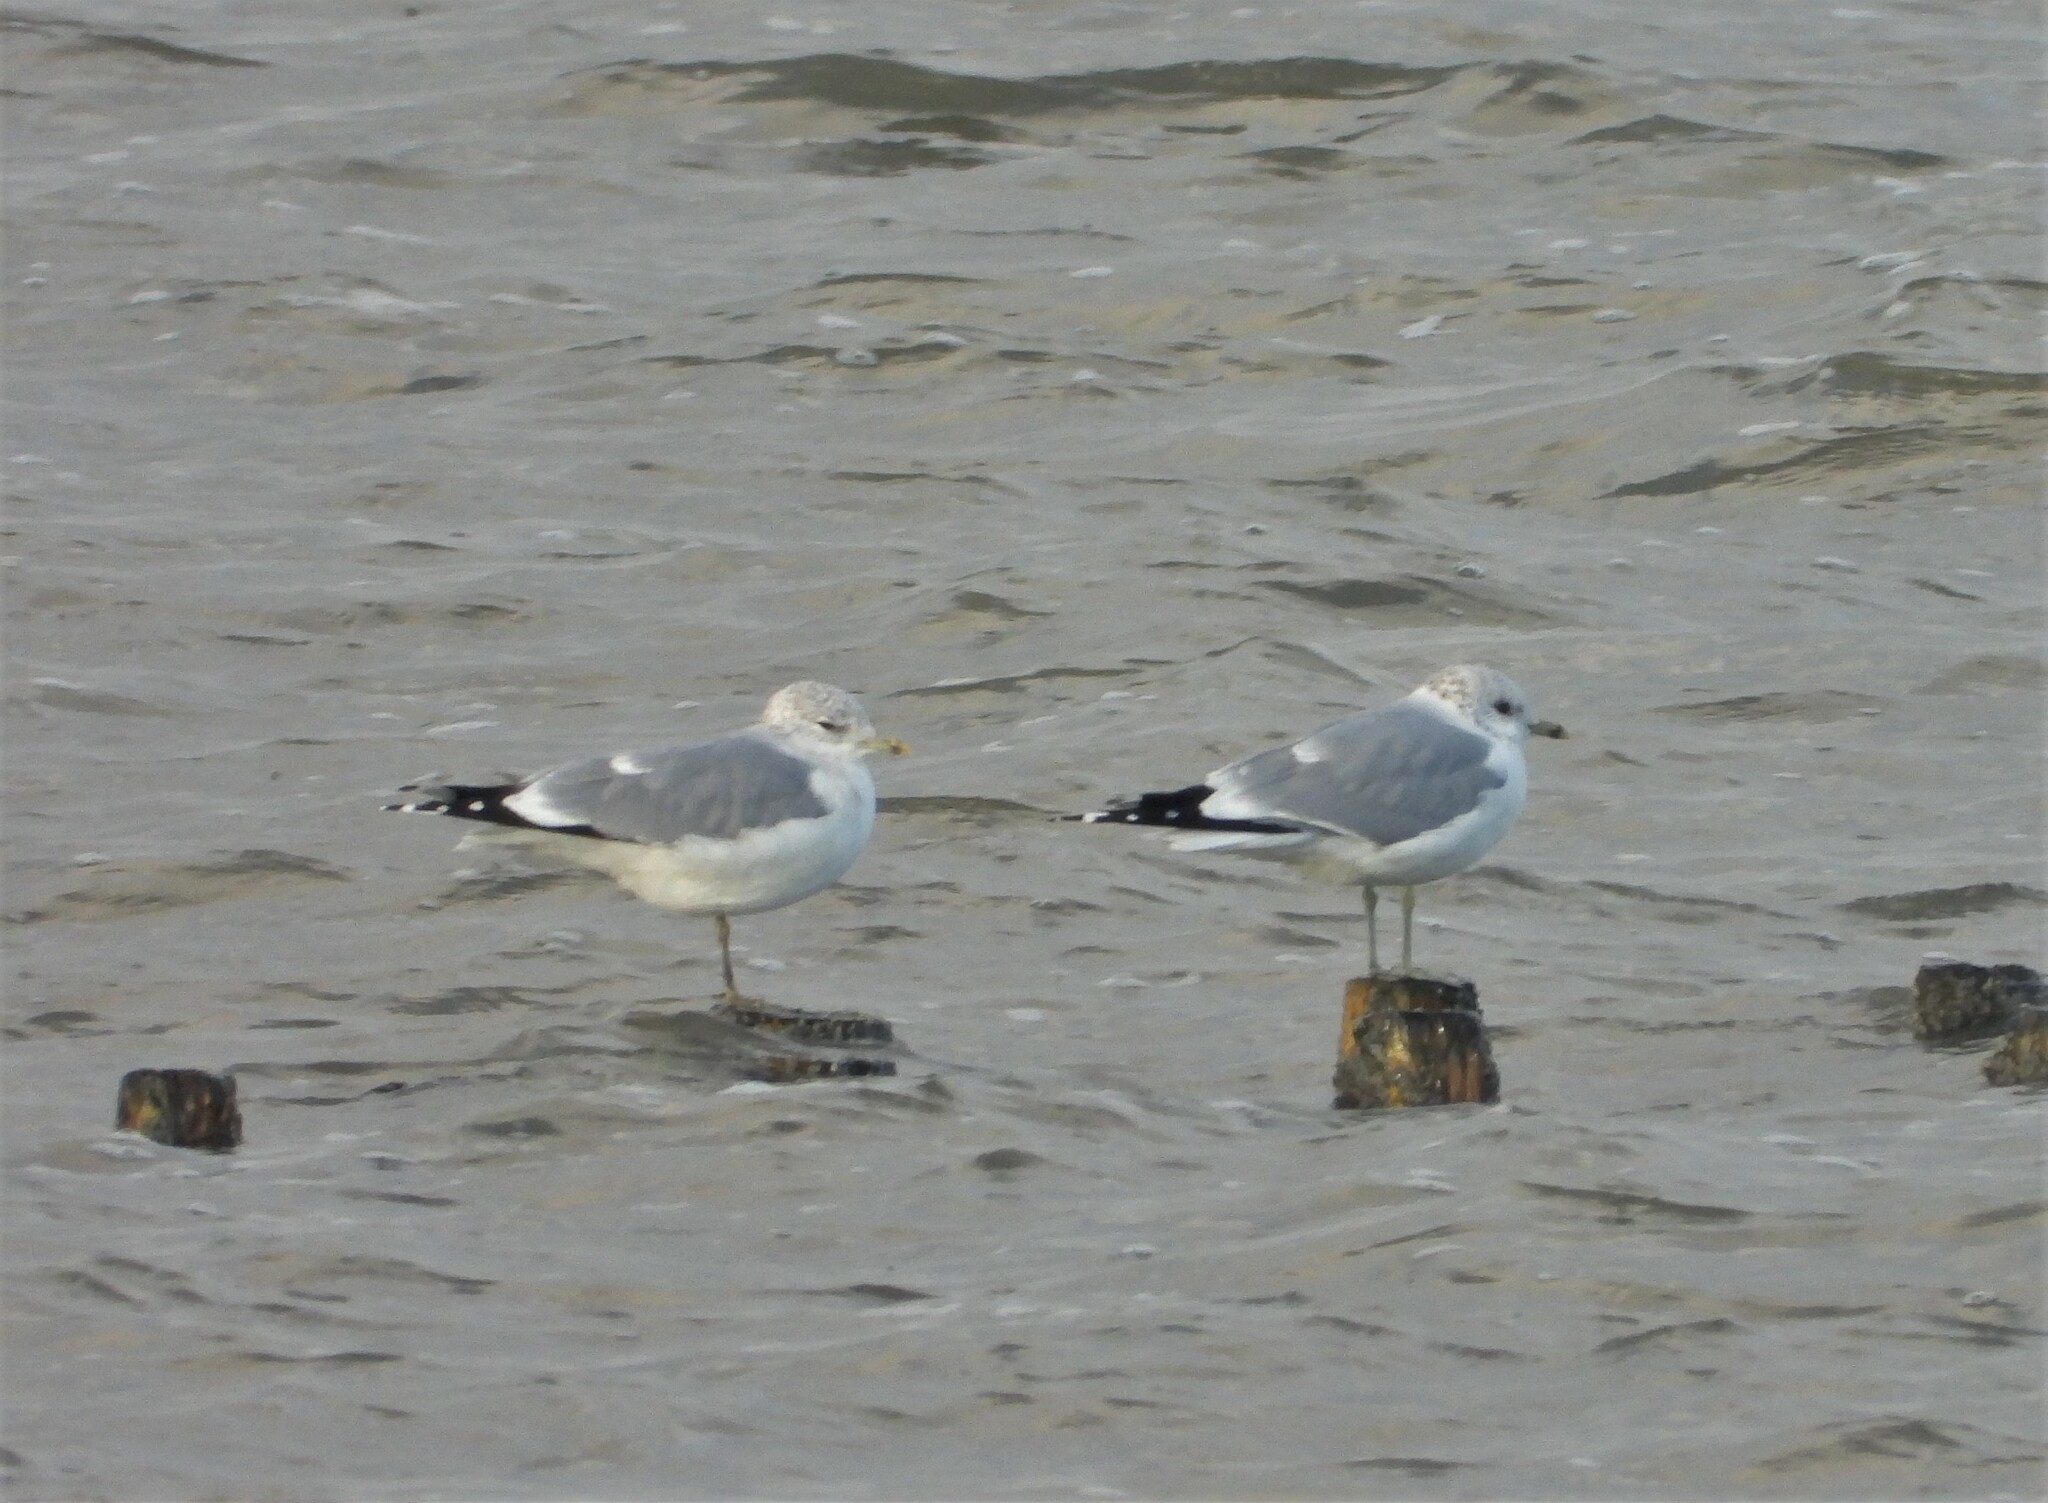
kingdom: Animalia
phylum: Chordata
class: Aves
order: Charadriiformes
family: Laridae
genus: Larus
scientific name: Larus canus
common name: Mew gull
